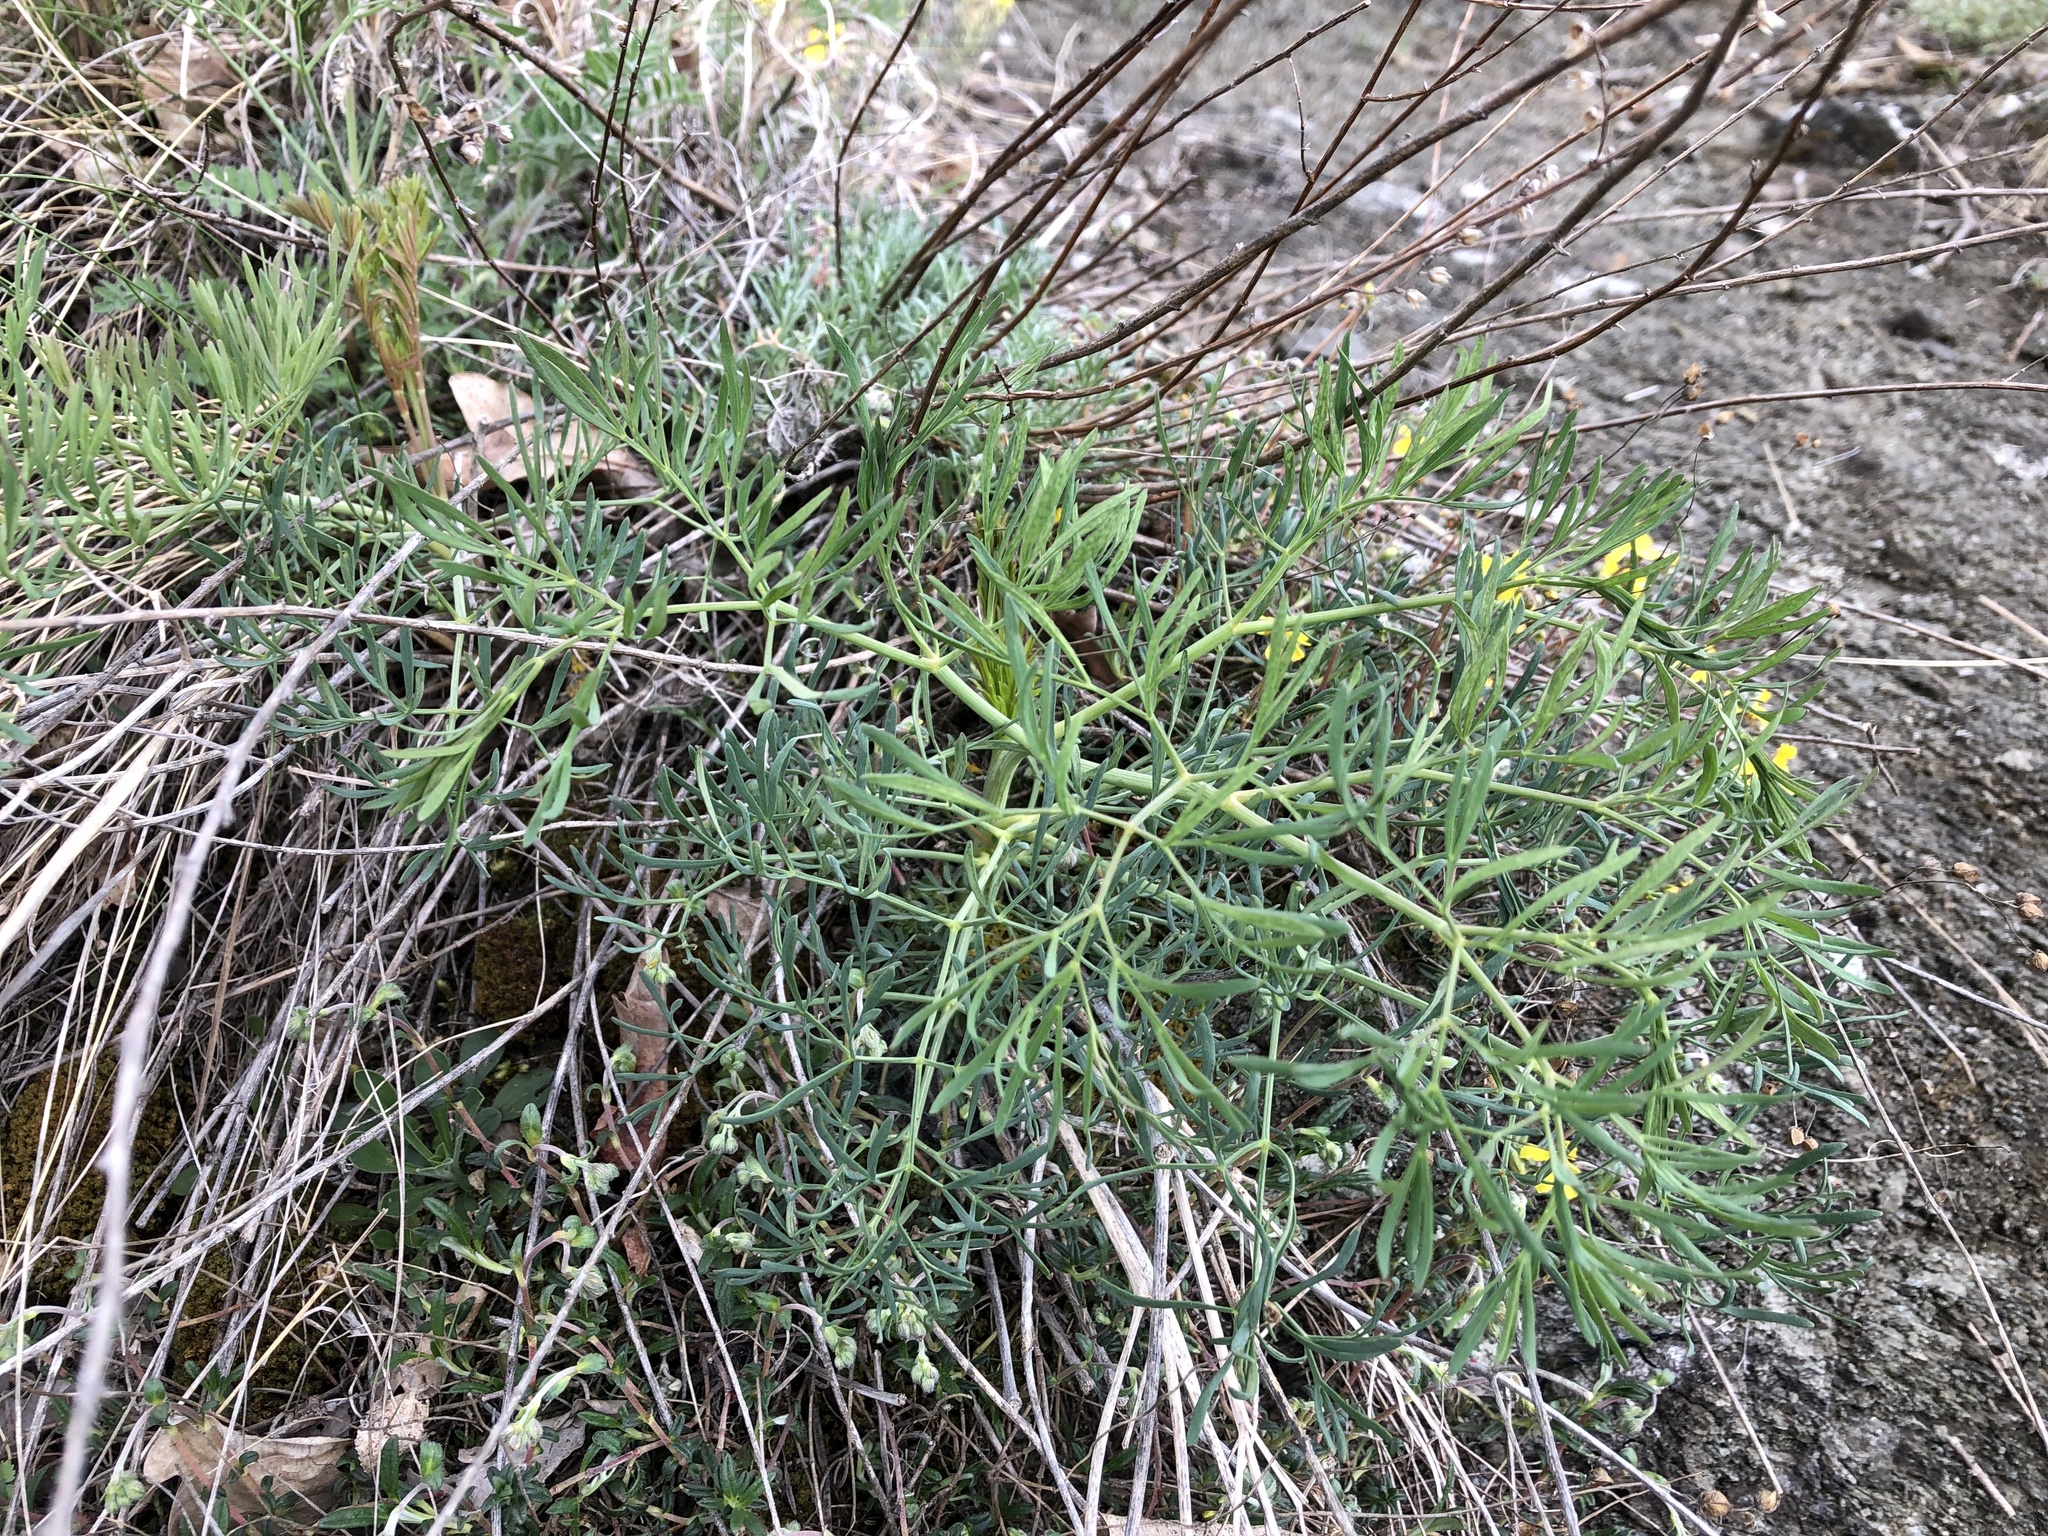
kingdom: Plantae
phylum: Tracheophyta
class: Magnoliopsida
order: Apiales
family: Apiaceae
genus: Seseli
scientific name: Seseli osseum
